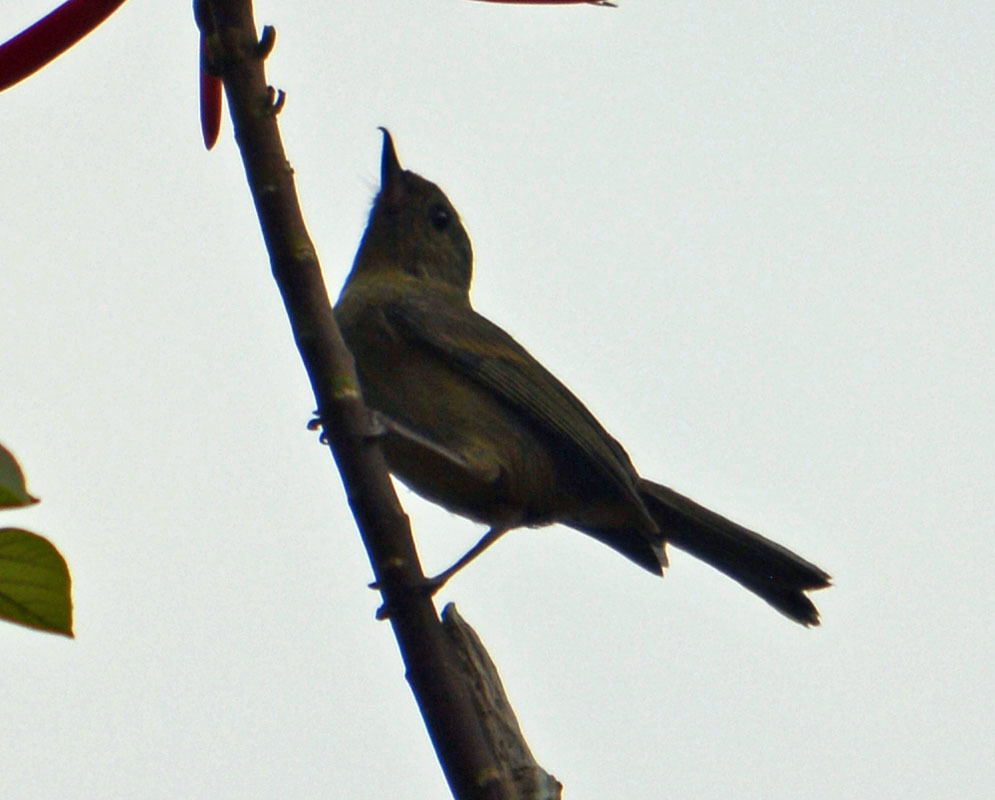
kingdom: Animalia
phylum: Chordata
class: Aves
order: Passeriformes
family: Thraupidae
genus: Diglossa
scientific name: Diglossa baritula
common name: Cinnamon-bellied flowerpiercer
